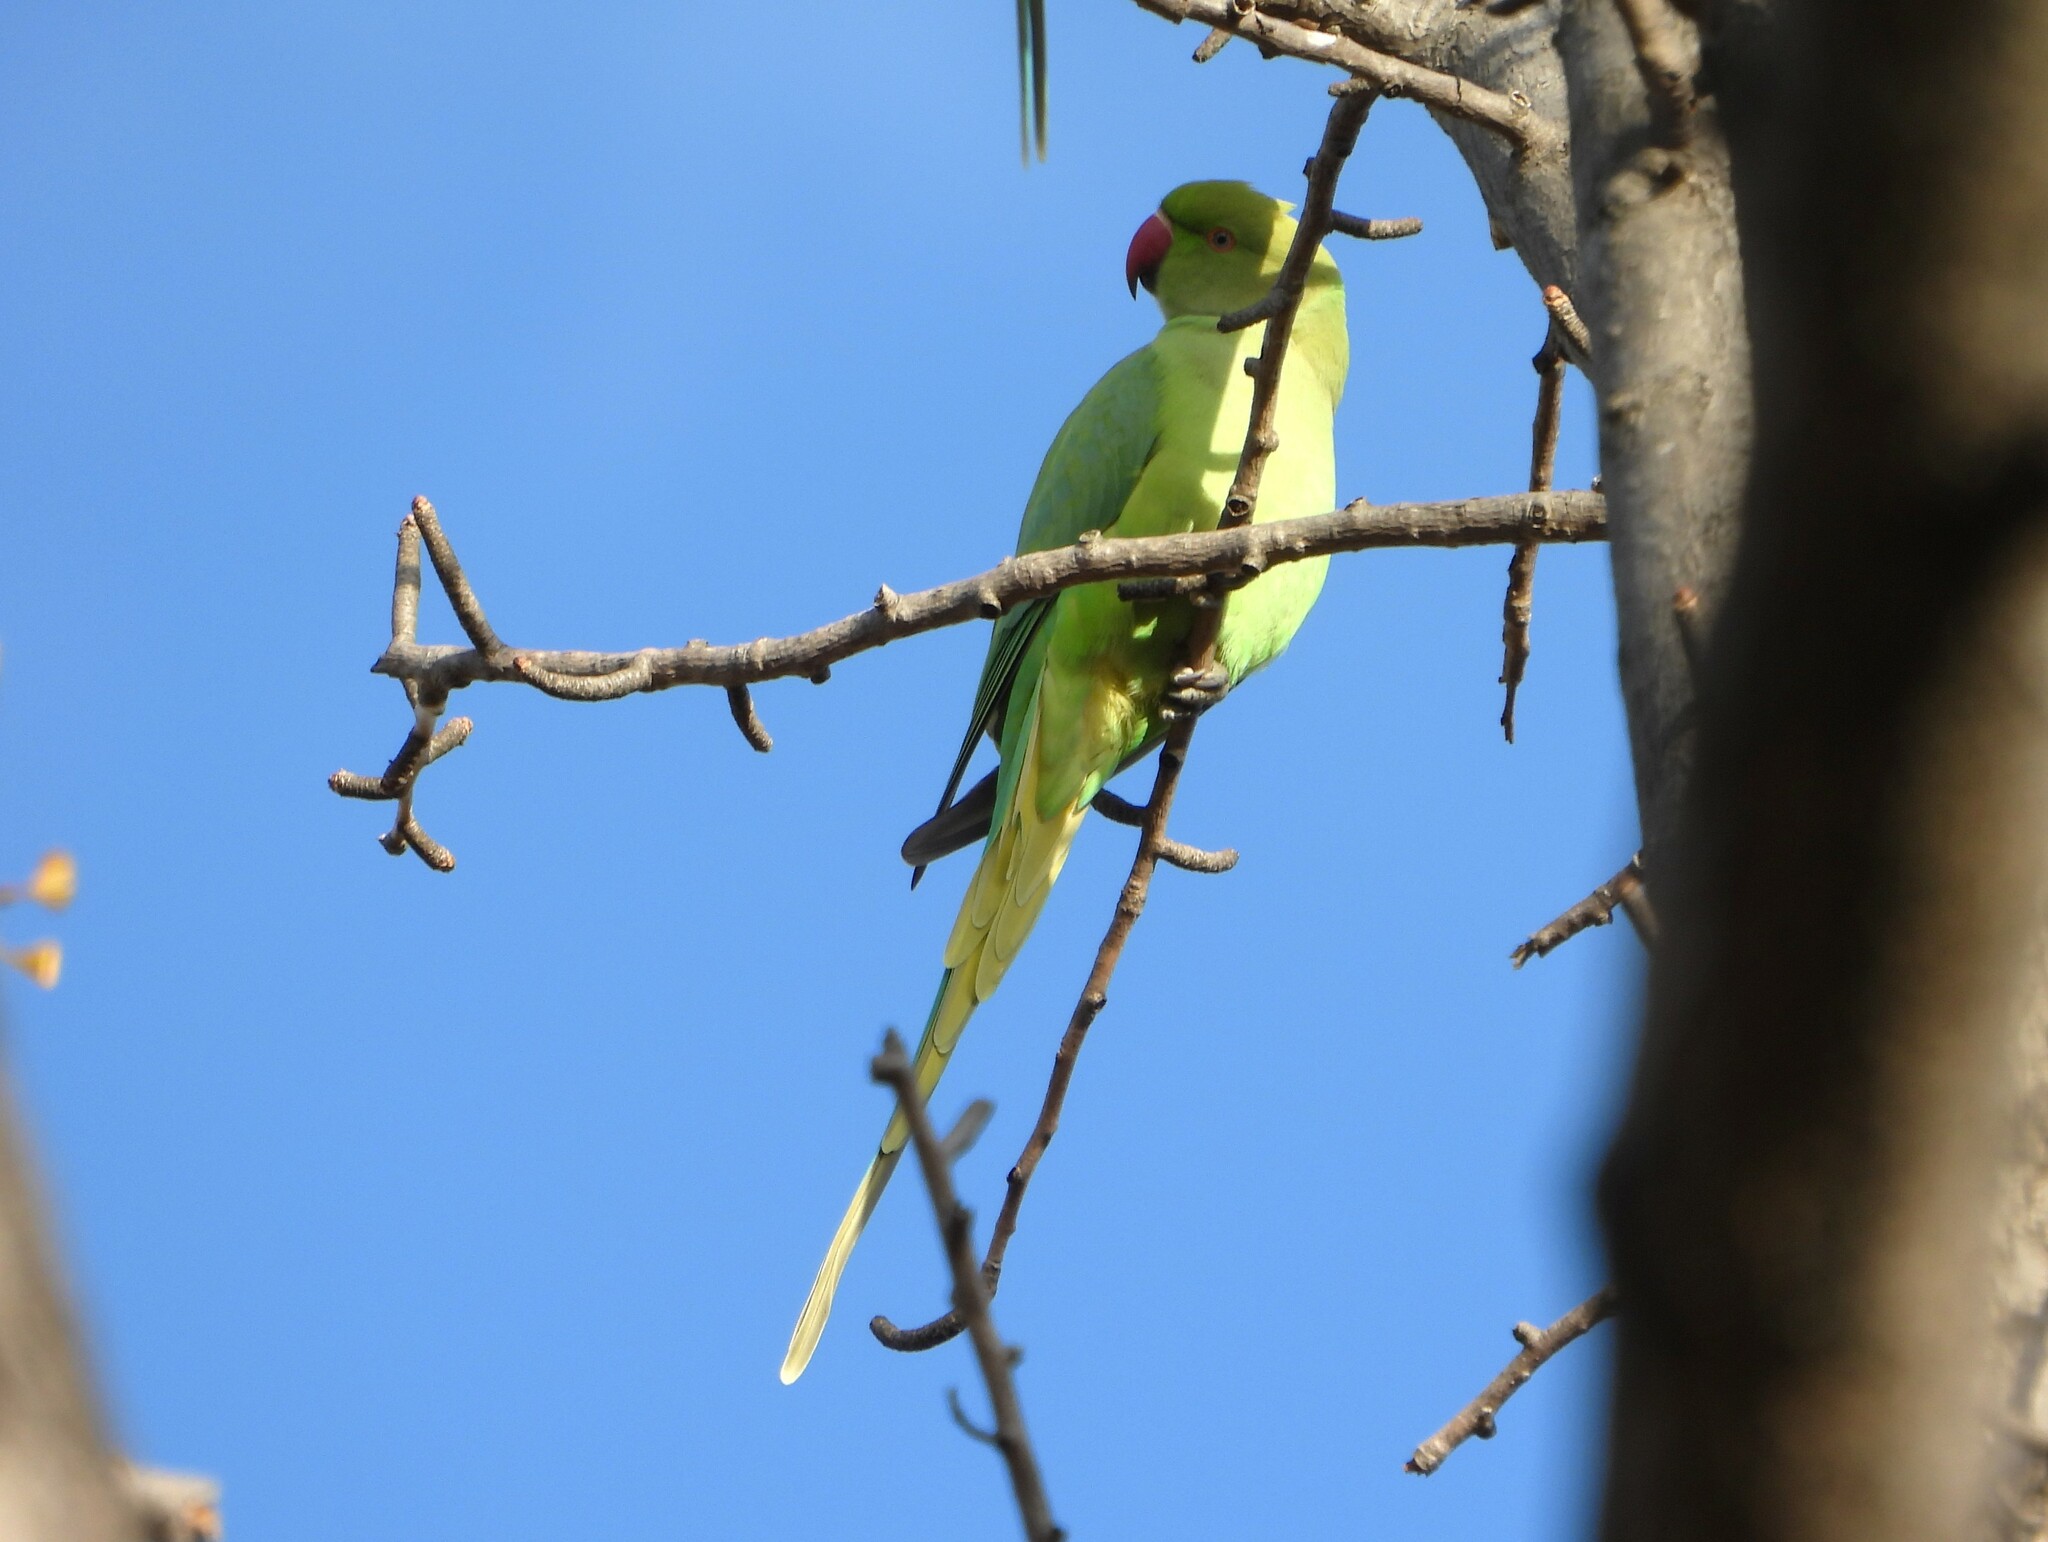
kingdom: Animalia
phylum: Chordata
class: Aves
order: Psittaciformes
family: Psittacidae
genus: Psittacula
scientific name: Psittacula krameri
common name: Rose-ringed parakeet
